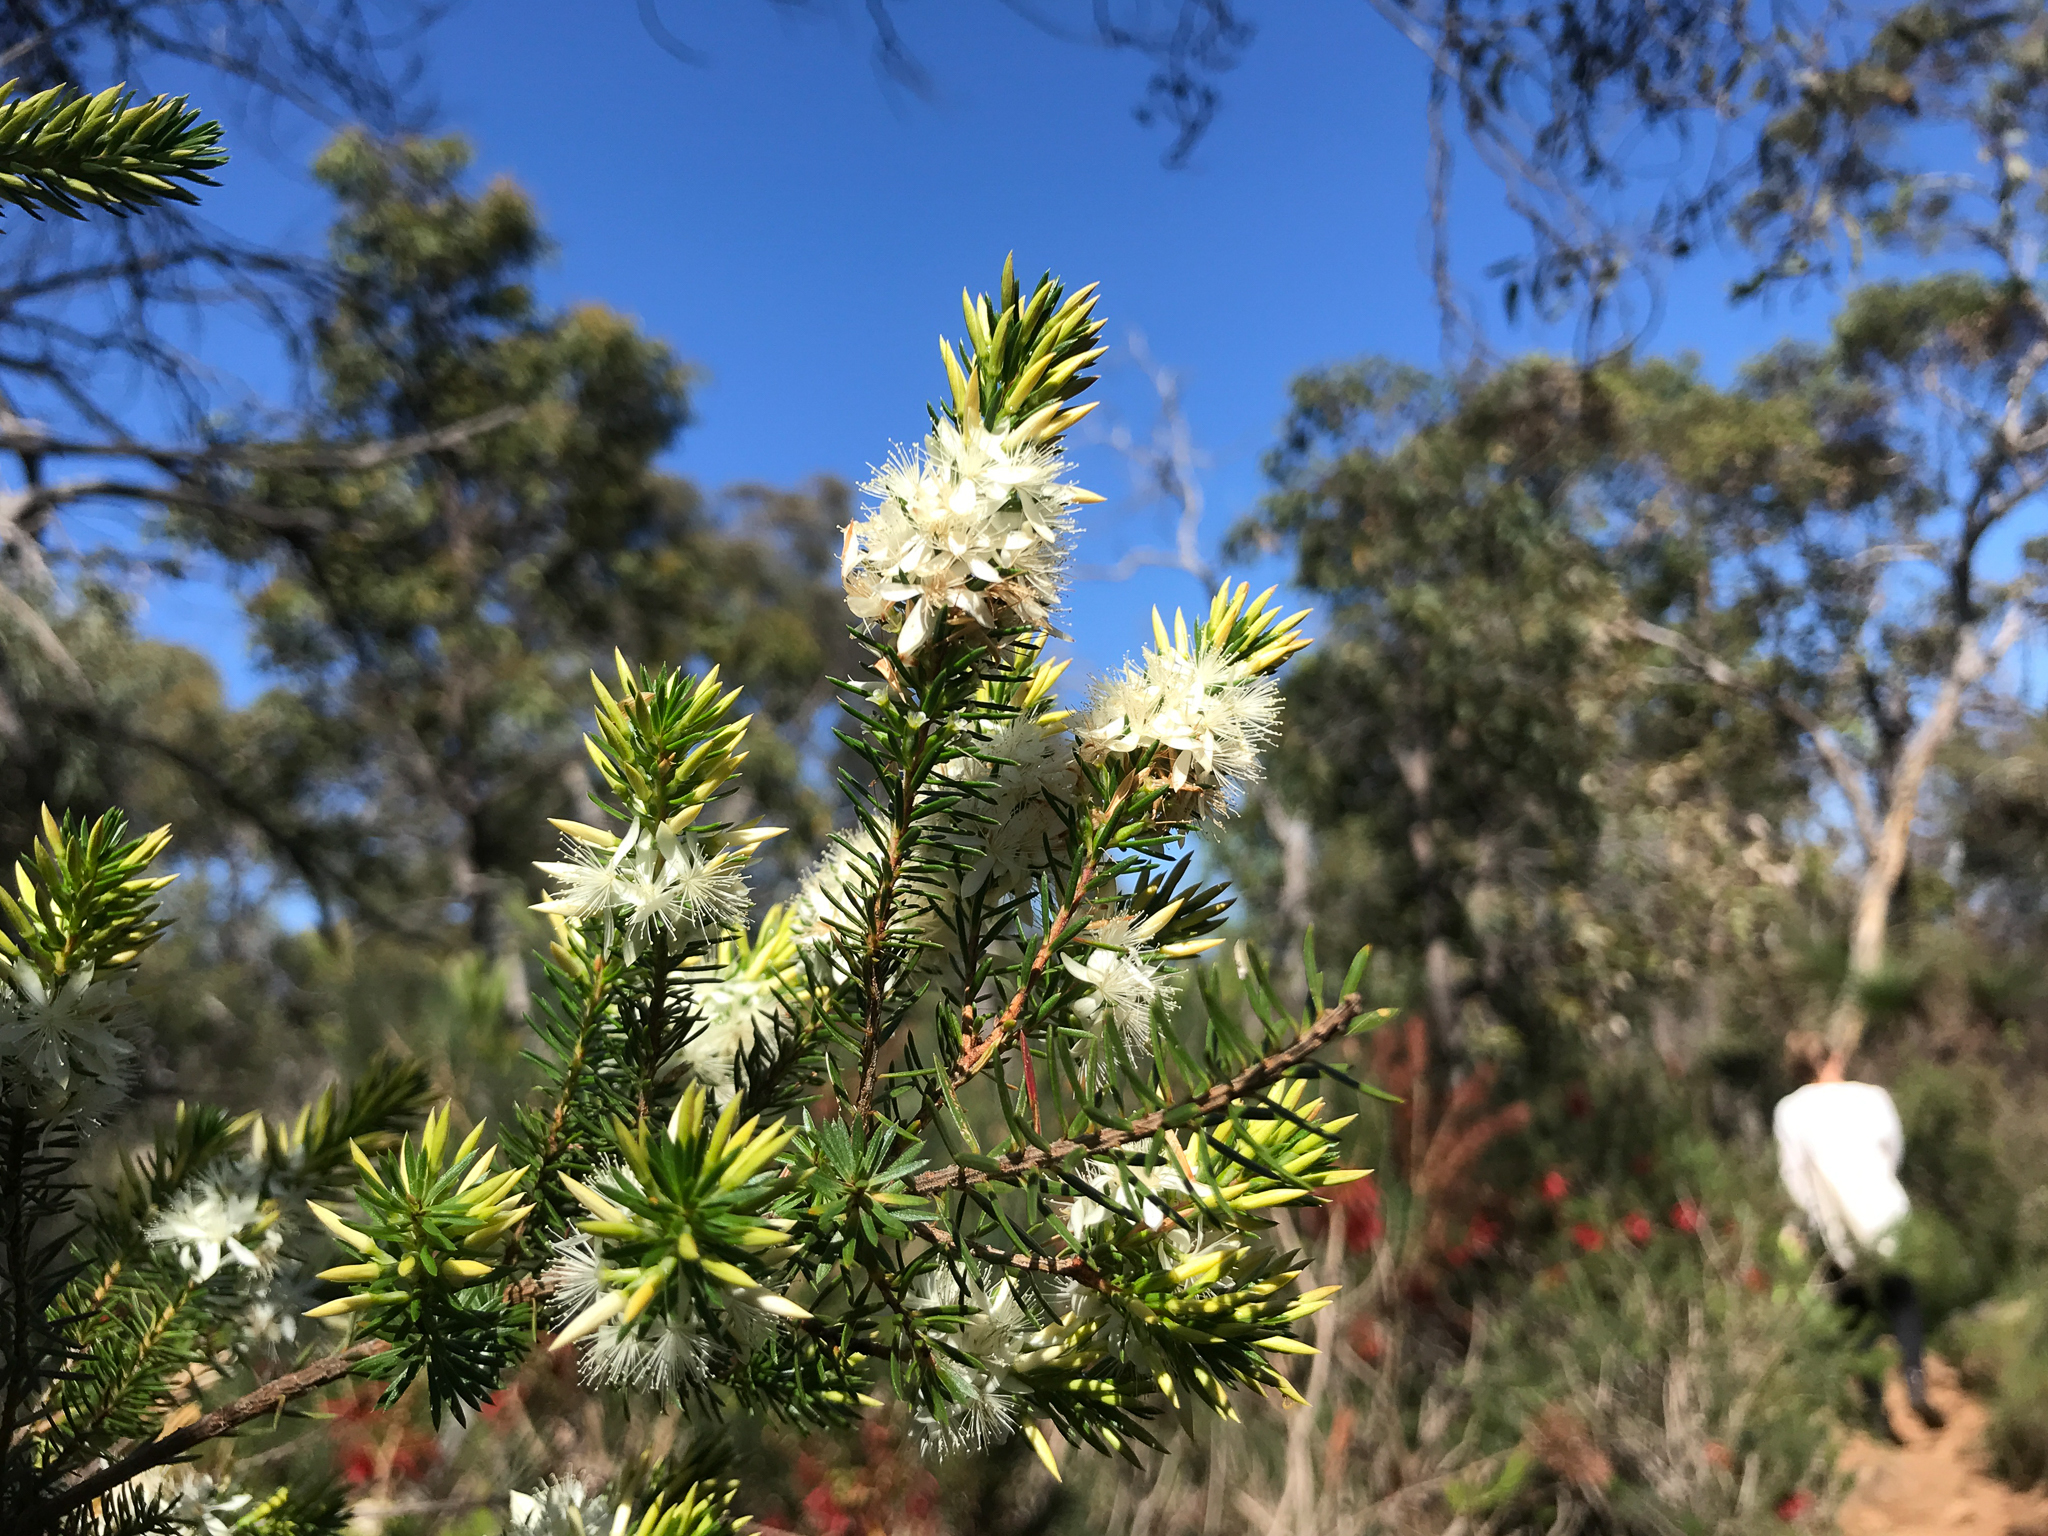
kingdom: Plantae
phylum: Tracheophyta
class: Magnoliopsida
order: Myrtales
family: Myrtaceae
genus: Calytrix
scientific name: Calytrix acutifolia
